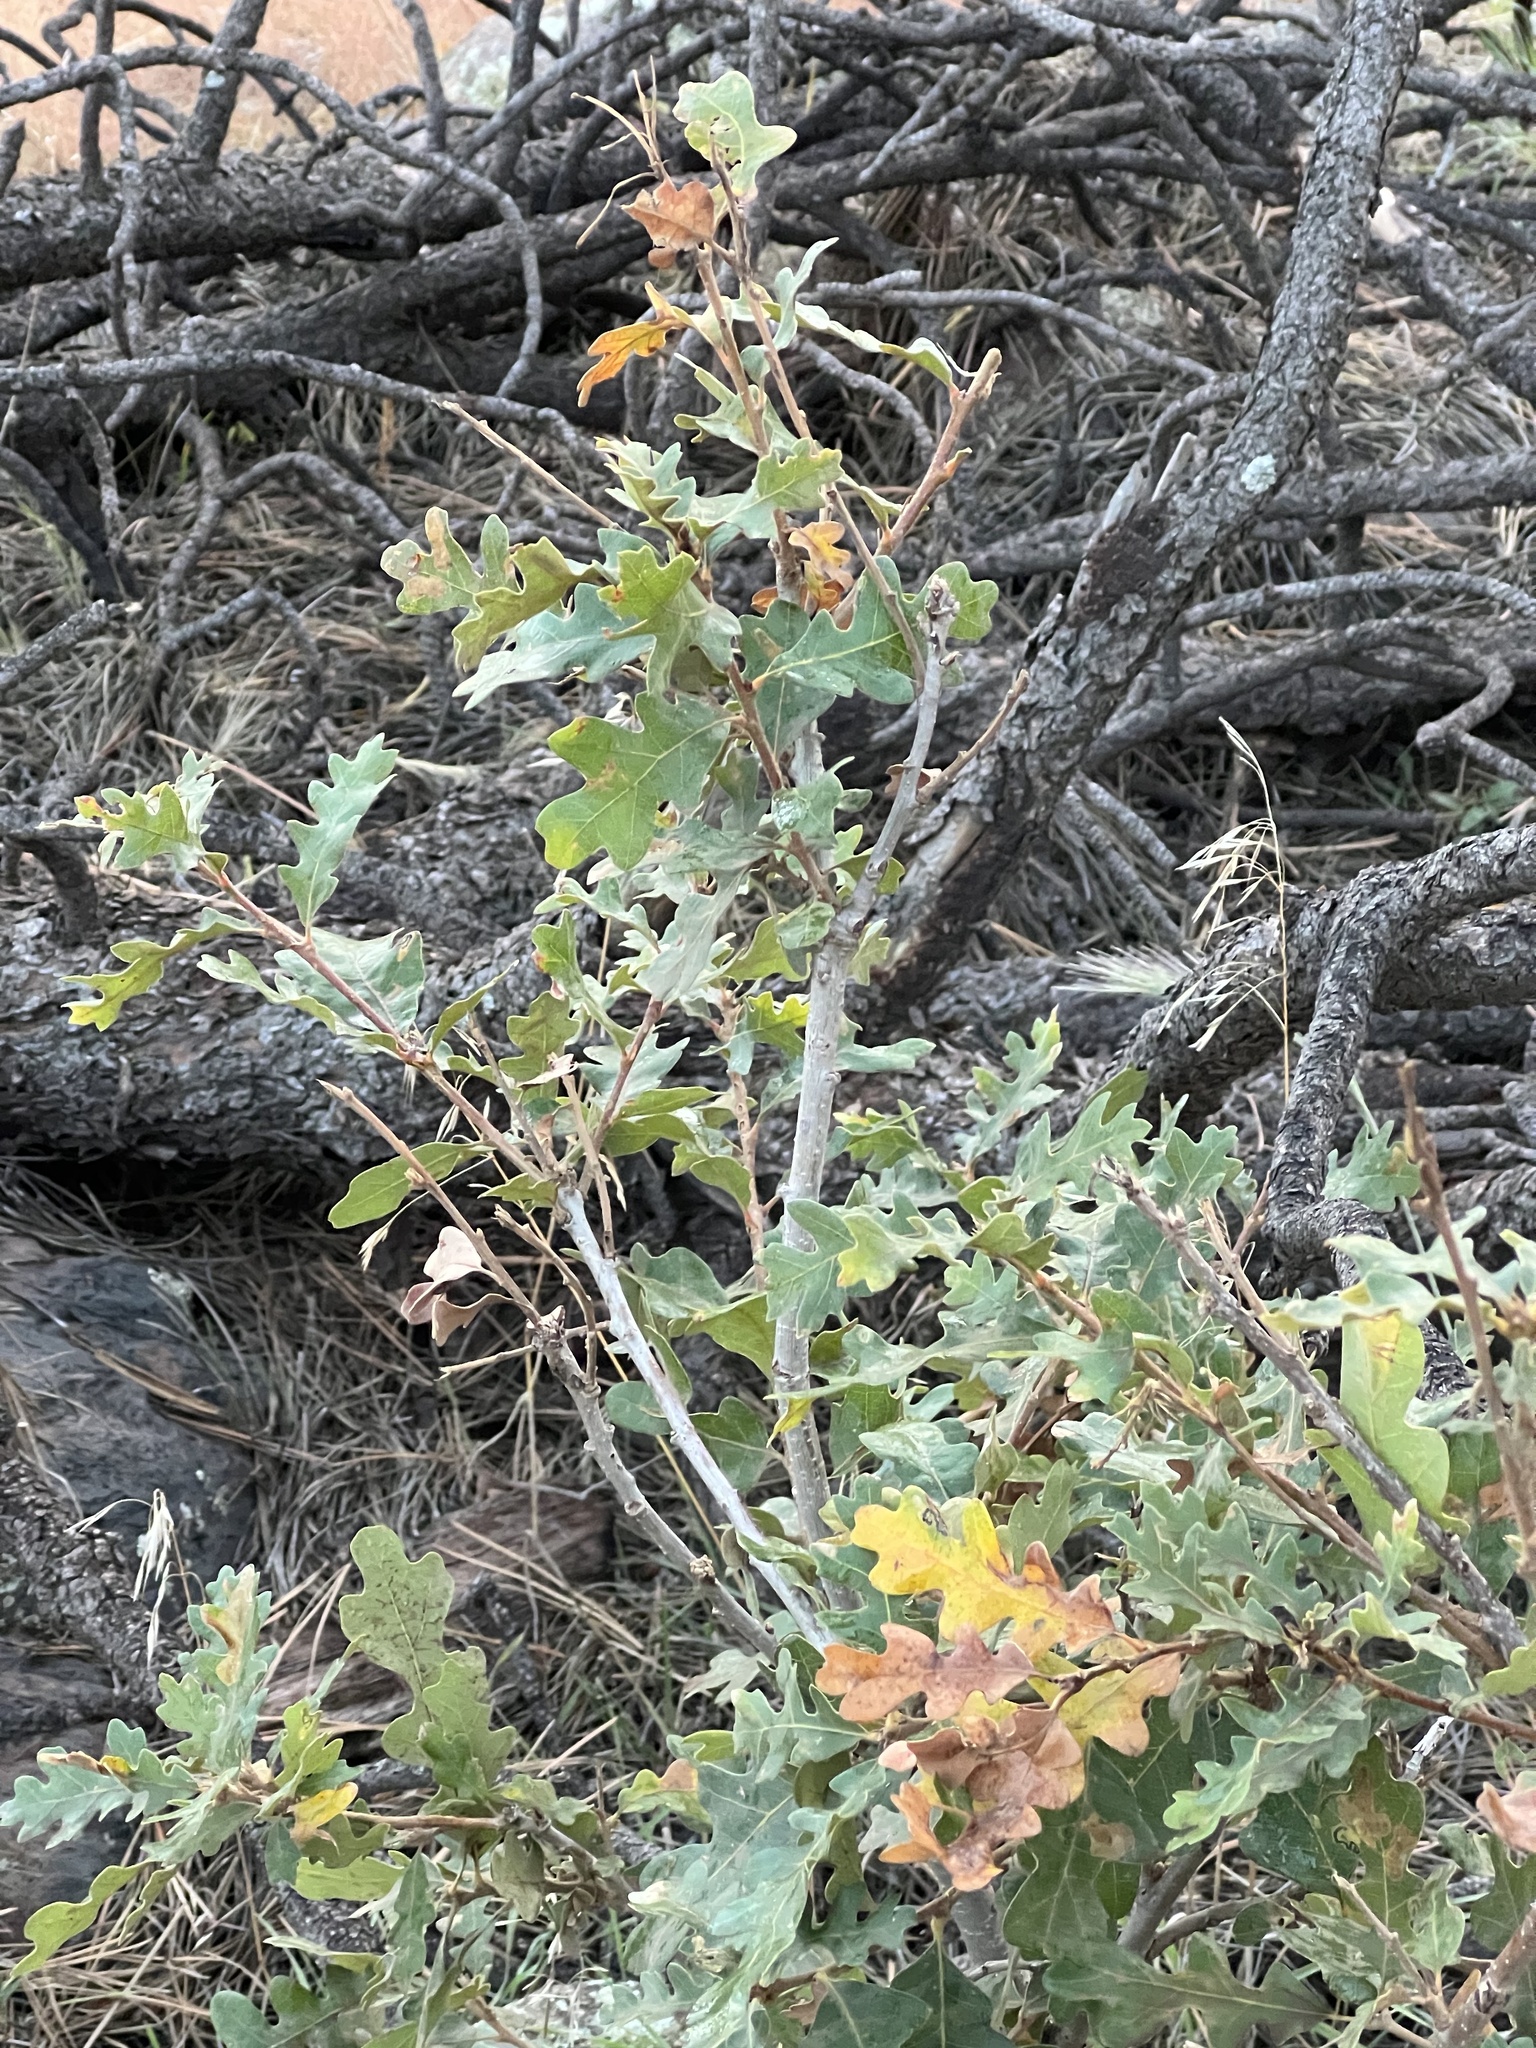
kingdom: Plantae
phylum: Tracheophyta
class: Magnoliopsida
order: Fagales
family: Fagaceae
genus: Quercus
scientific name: Quercus gambelii
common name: Gambel oak
